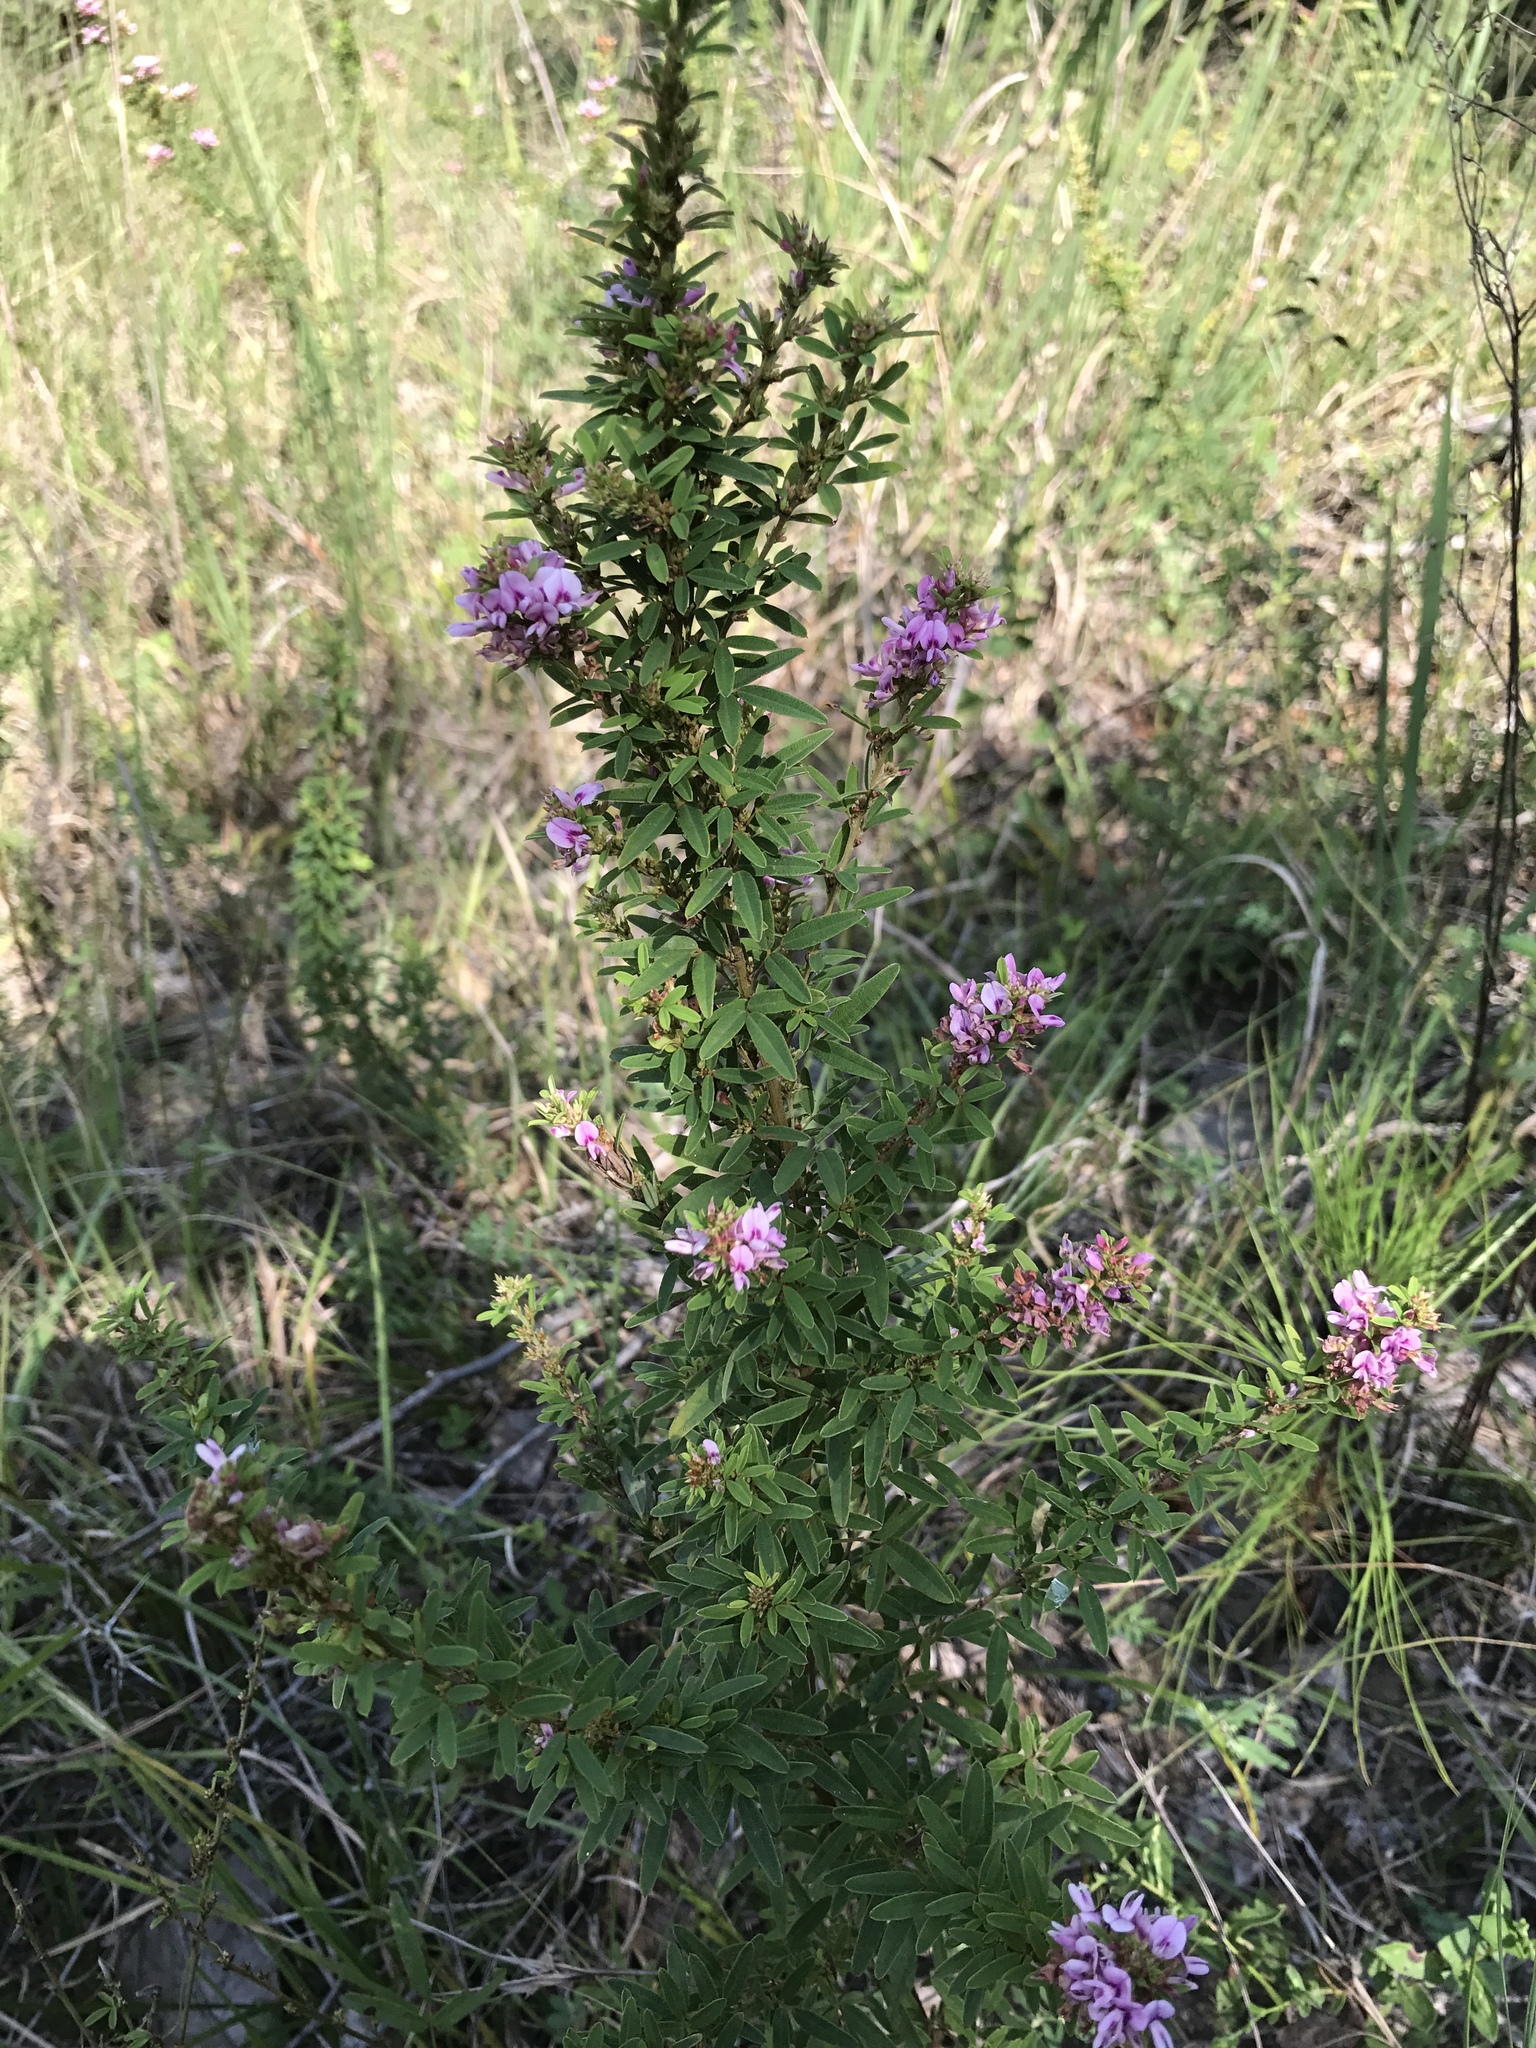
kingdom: Plantae
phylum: Tracheophyta
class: Magnoliopsida
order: Fabales
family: Fabaceae
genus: Lespedeza
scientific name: Lespedeza virginica
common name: Slender bush-clover
